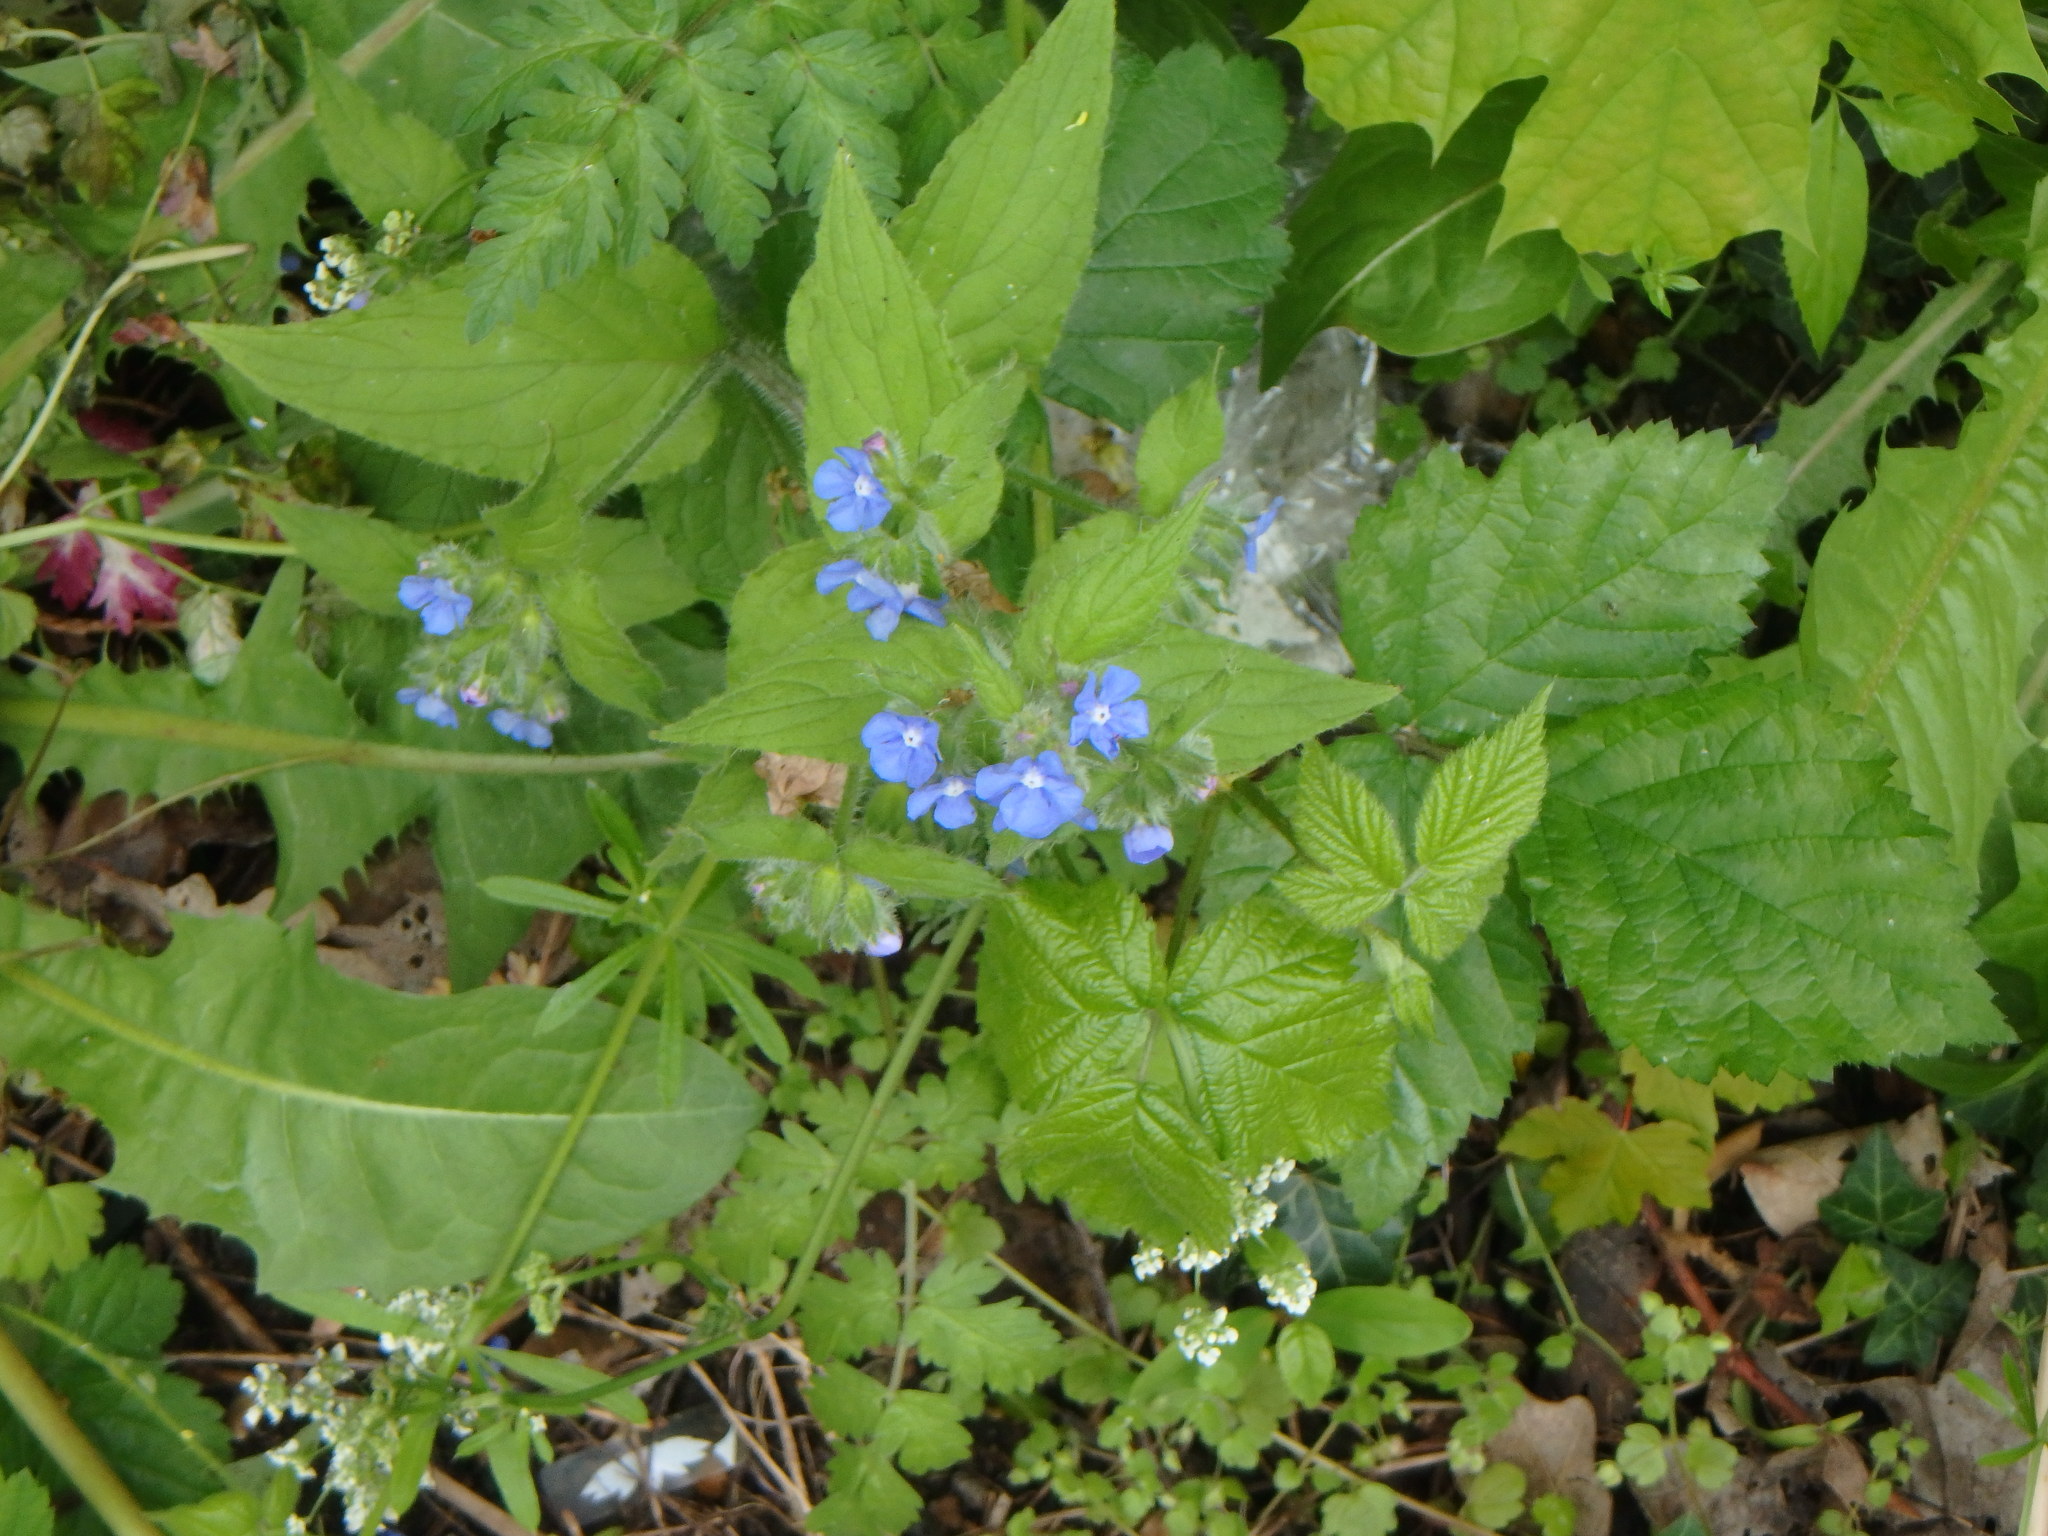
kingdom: Plantae
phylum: Tracheophyta
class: Magnoliopsida
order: Boraginales
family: Boraginaceae
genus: Pentaglottis
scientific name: Pentaglottis sempervirens
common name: Green alkanet
